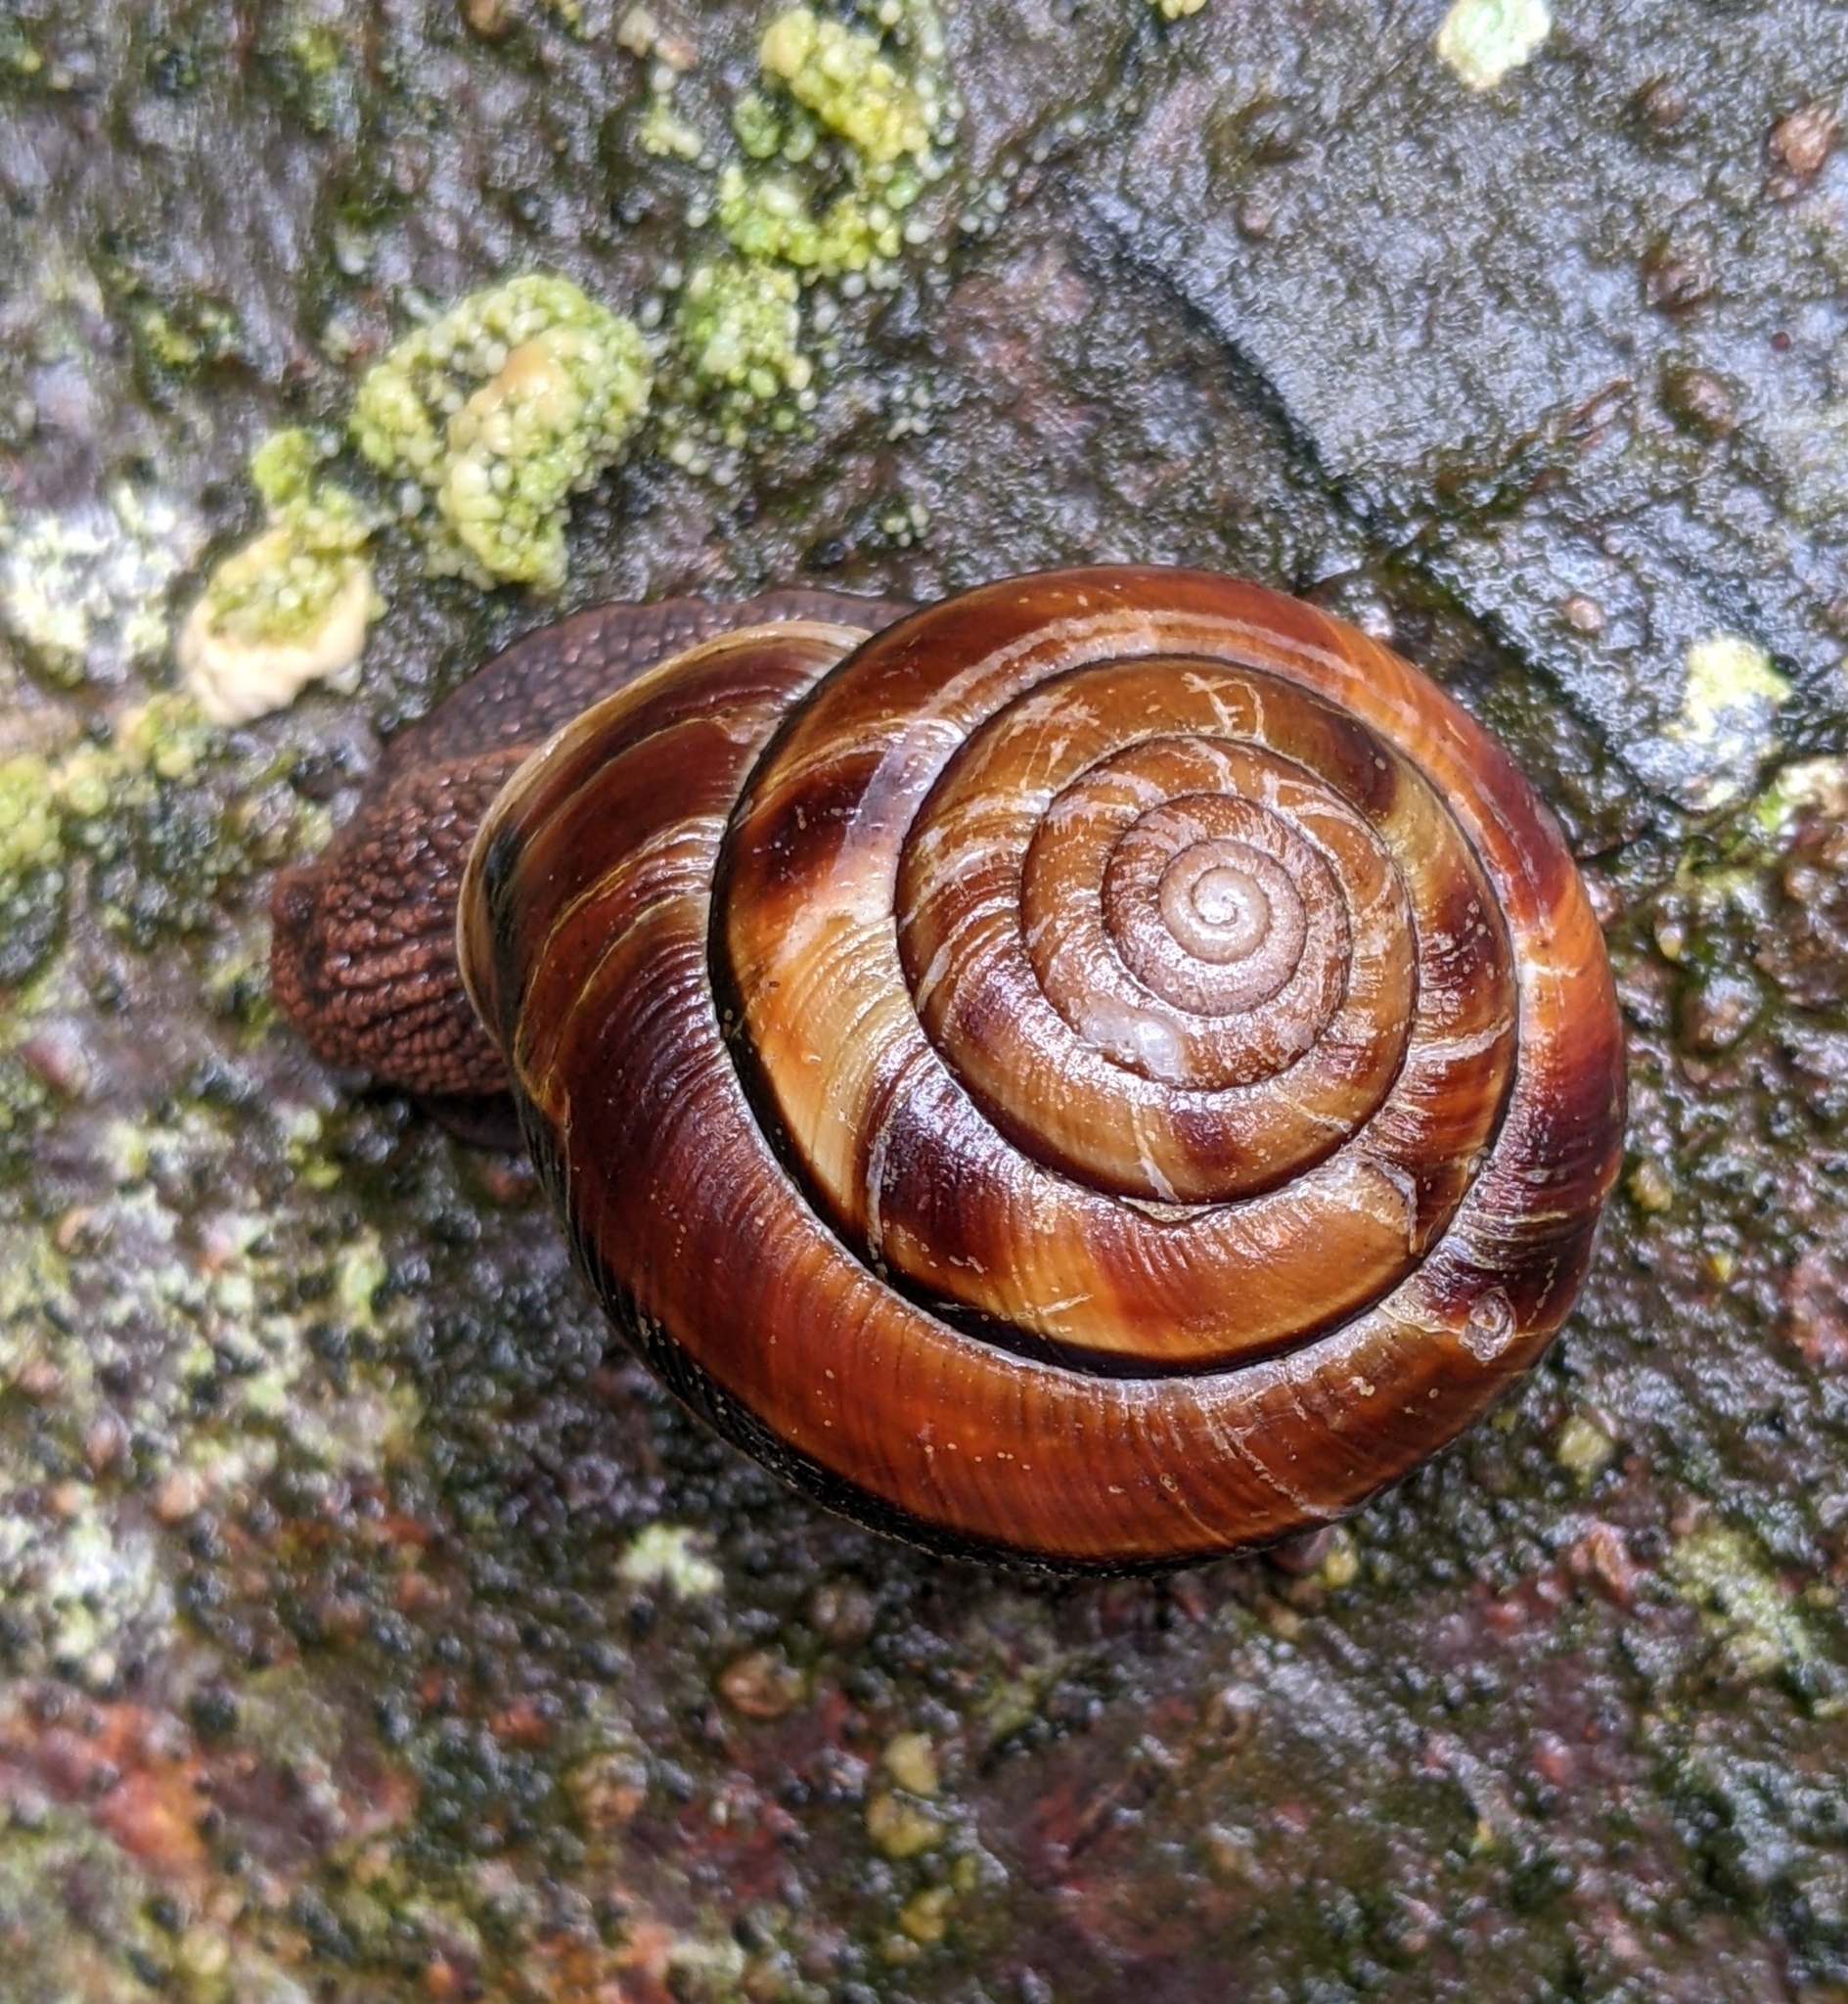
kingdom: Animalia
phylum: Mollusca
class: Gastropoda
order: Stylommatophora
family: Xanthonychidae
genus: Monadenia
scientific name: Monadenia fidelis
